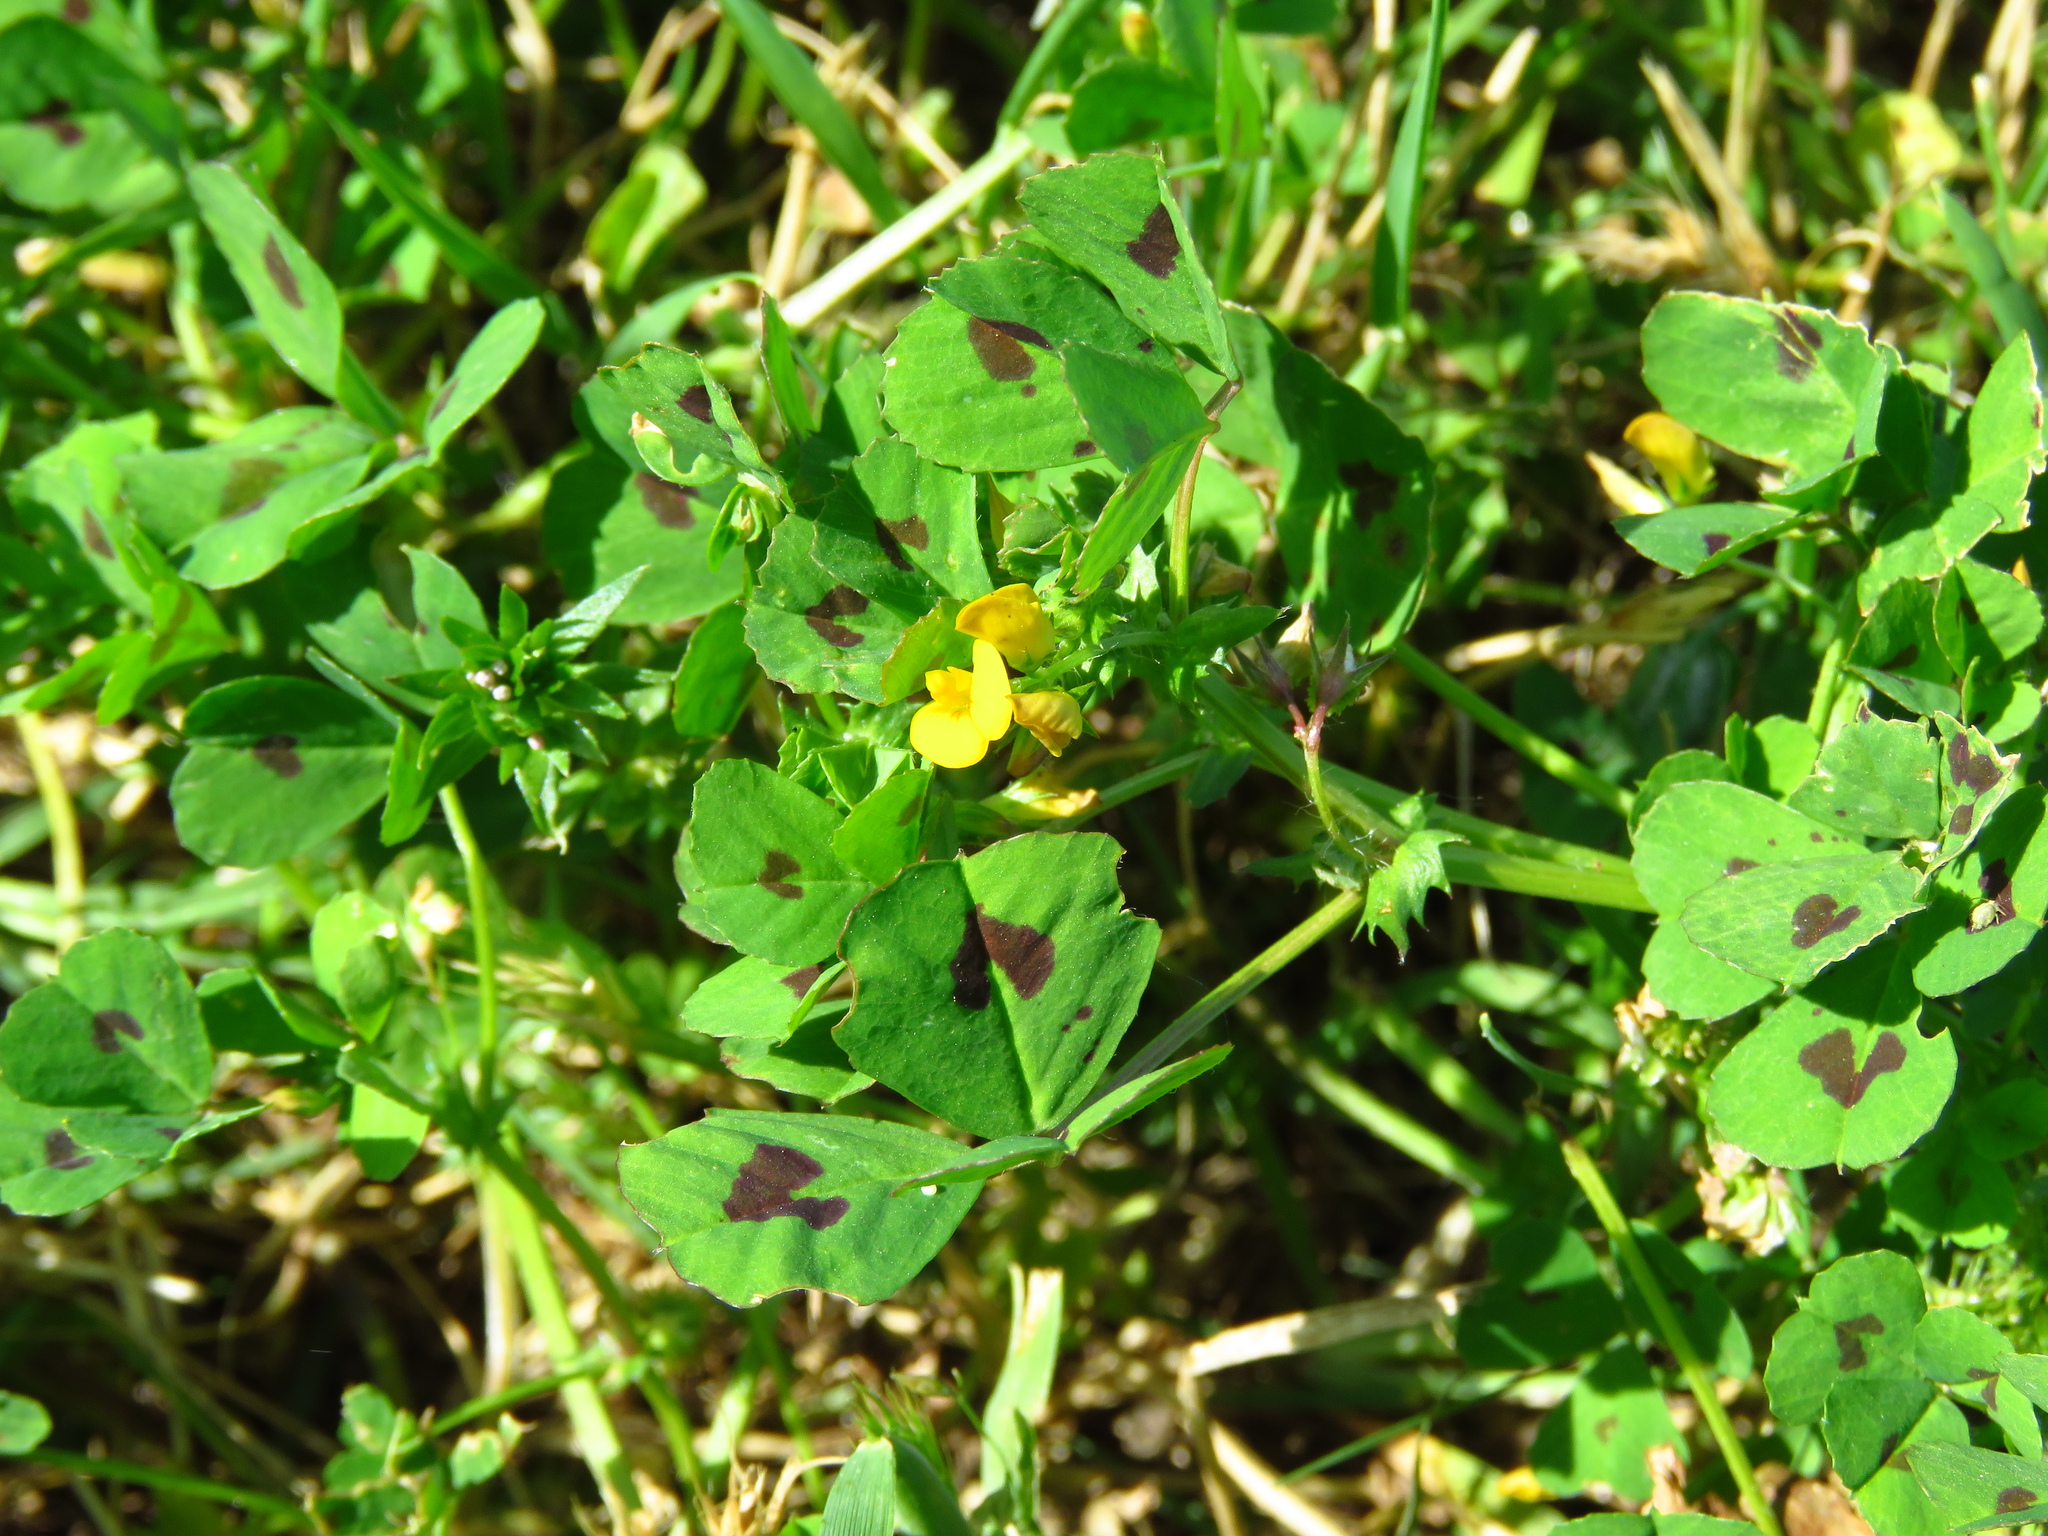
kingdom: Plantae
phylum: Tracheophyta
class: Magnoliopsida
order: Fabales
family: Fabaceae
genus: Medicago
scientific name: Medicago arabica
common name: Spotted medick
